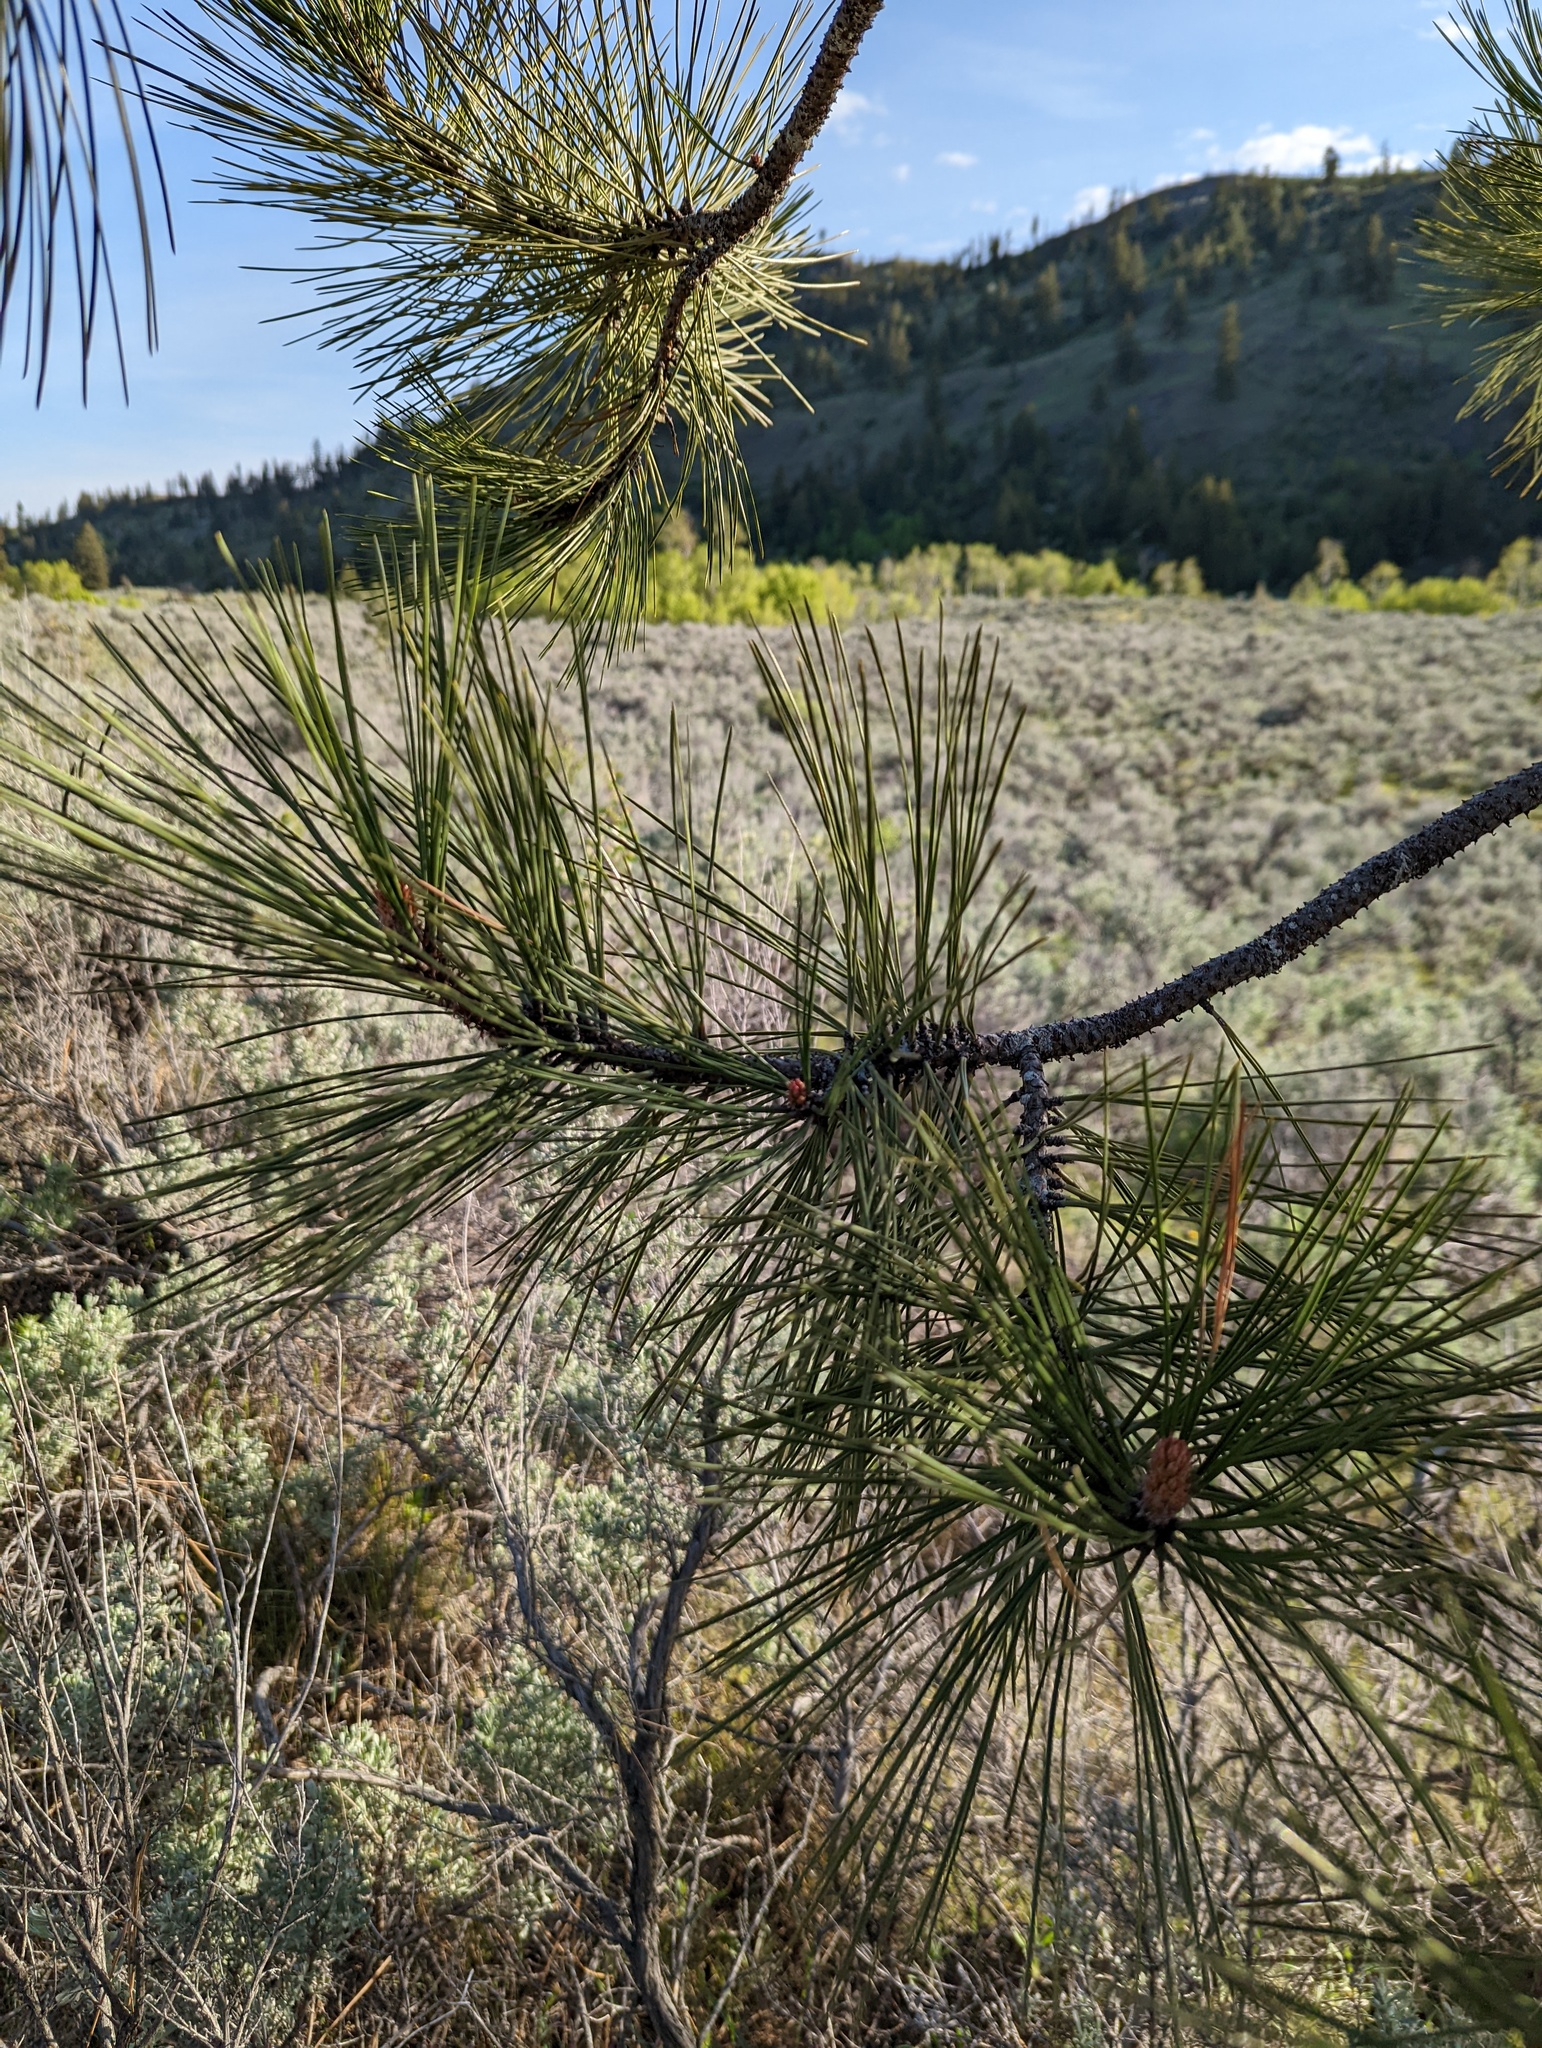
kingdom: Plantae
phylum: Tracheophyta
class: Pinopsida
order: Pinales
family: Pinaceae
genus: Pinus
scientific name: Pinus ponderosa
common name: Western yellow-pine
